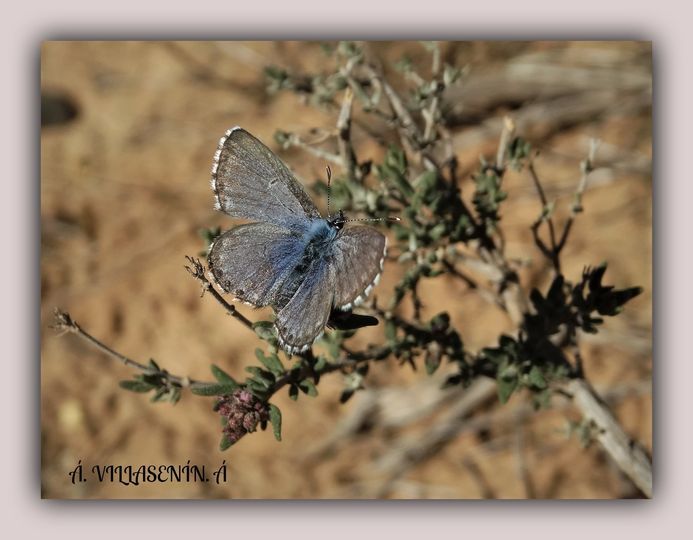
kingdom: Animalia
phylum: Arthropoda
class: Insecta
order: Lepidoptera
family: Lycaenidae
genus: Pseudophilotes
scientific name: Pseudophilotes baton
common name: Baton blue
